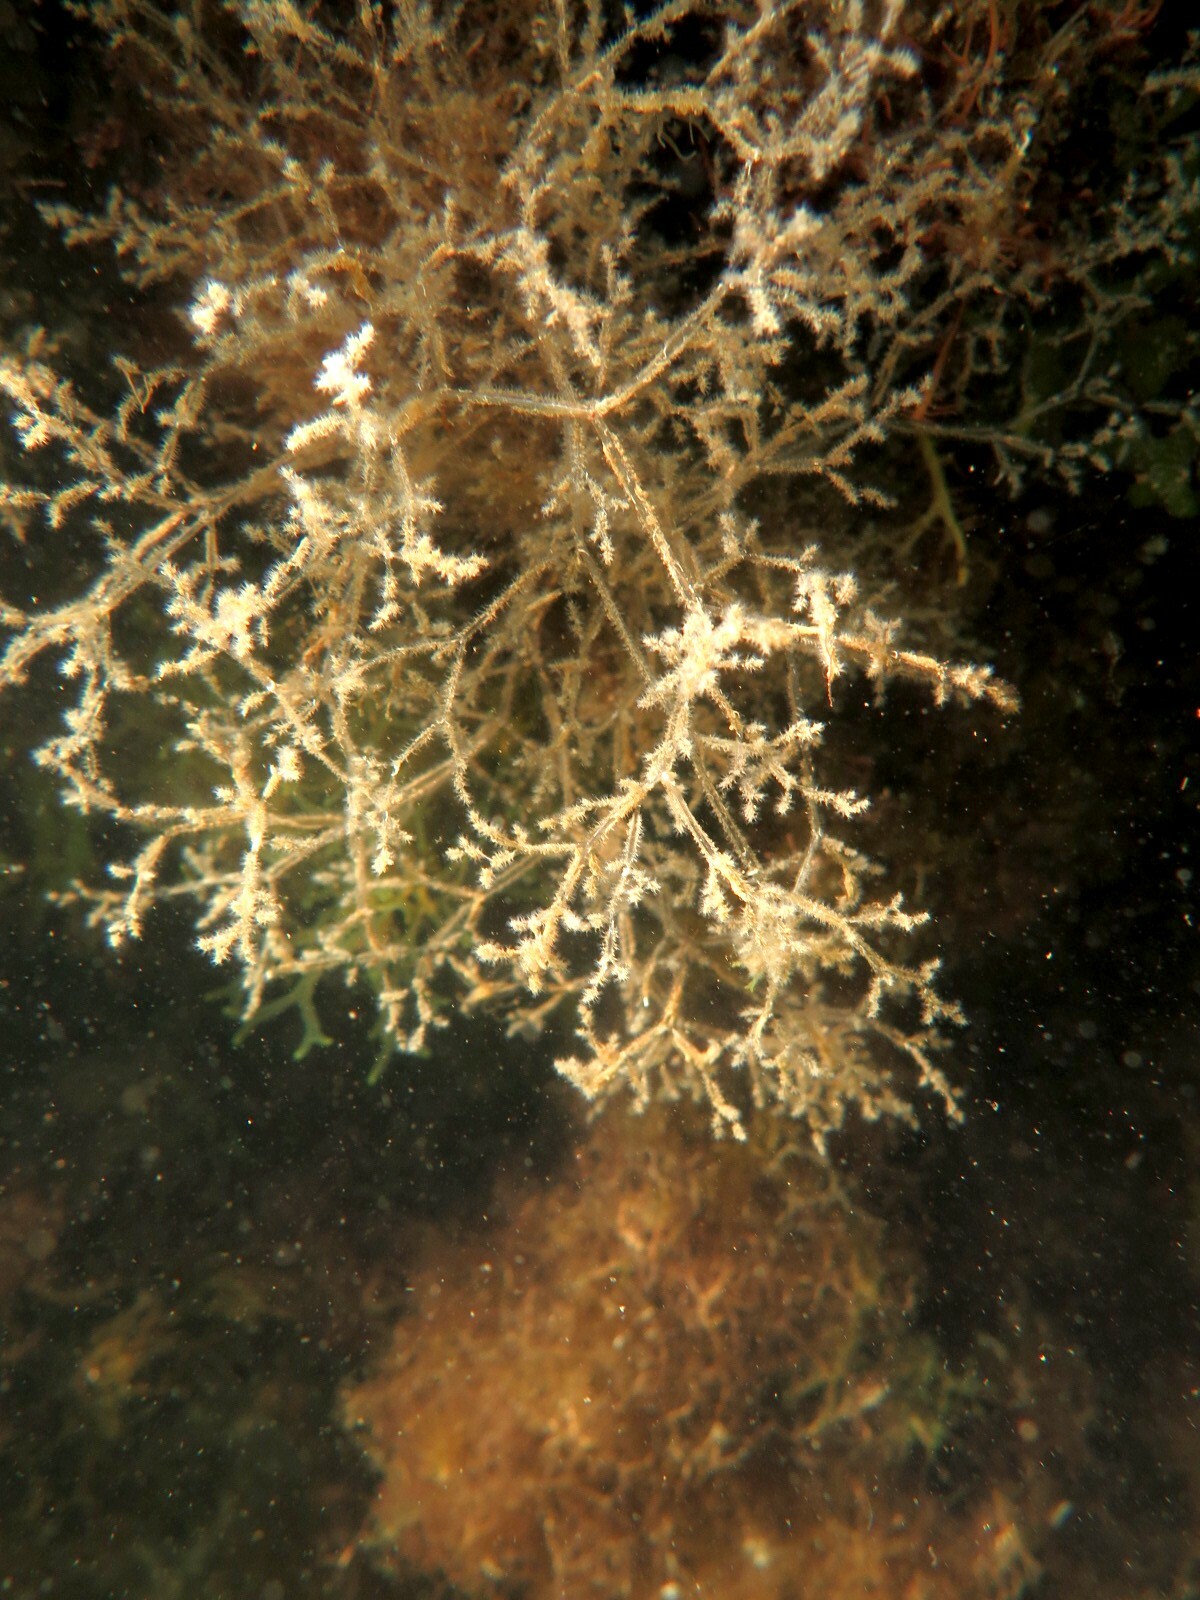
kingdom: Animalia
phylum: Bryozoa
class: Gymnolaemata
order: Ctenostomatida
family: Vesiculariidae
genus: Amathia
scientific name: Amathia verticillata
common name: Whorled zoobotryon
